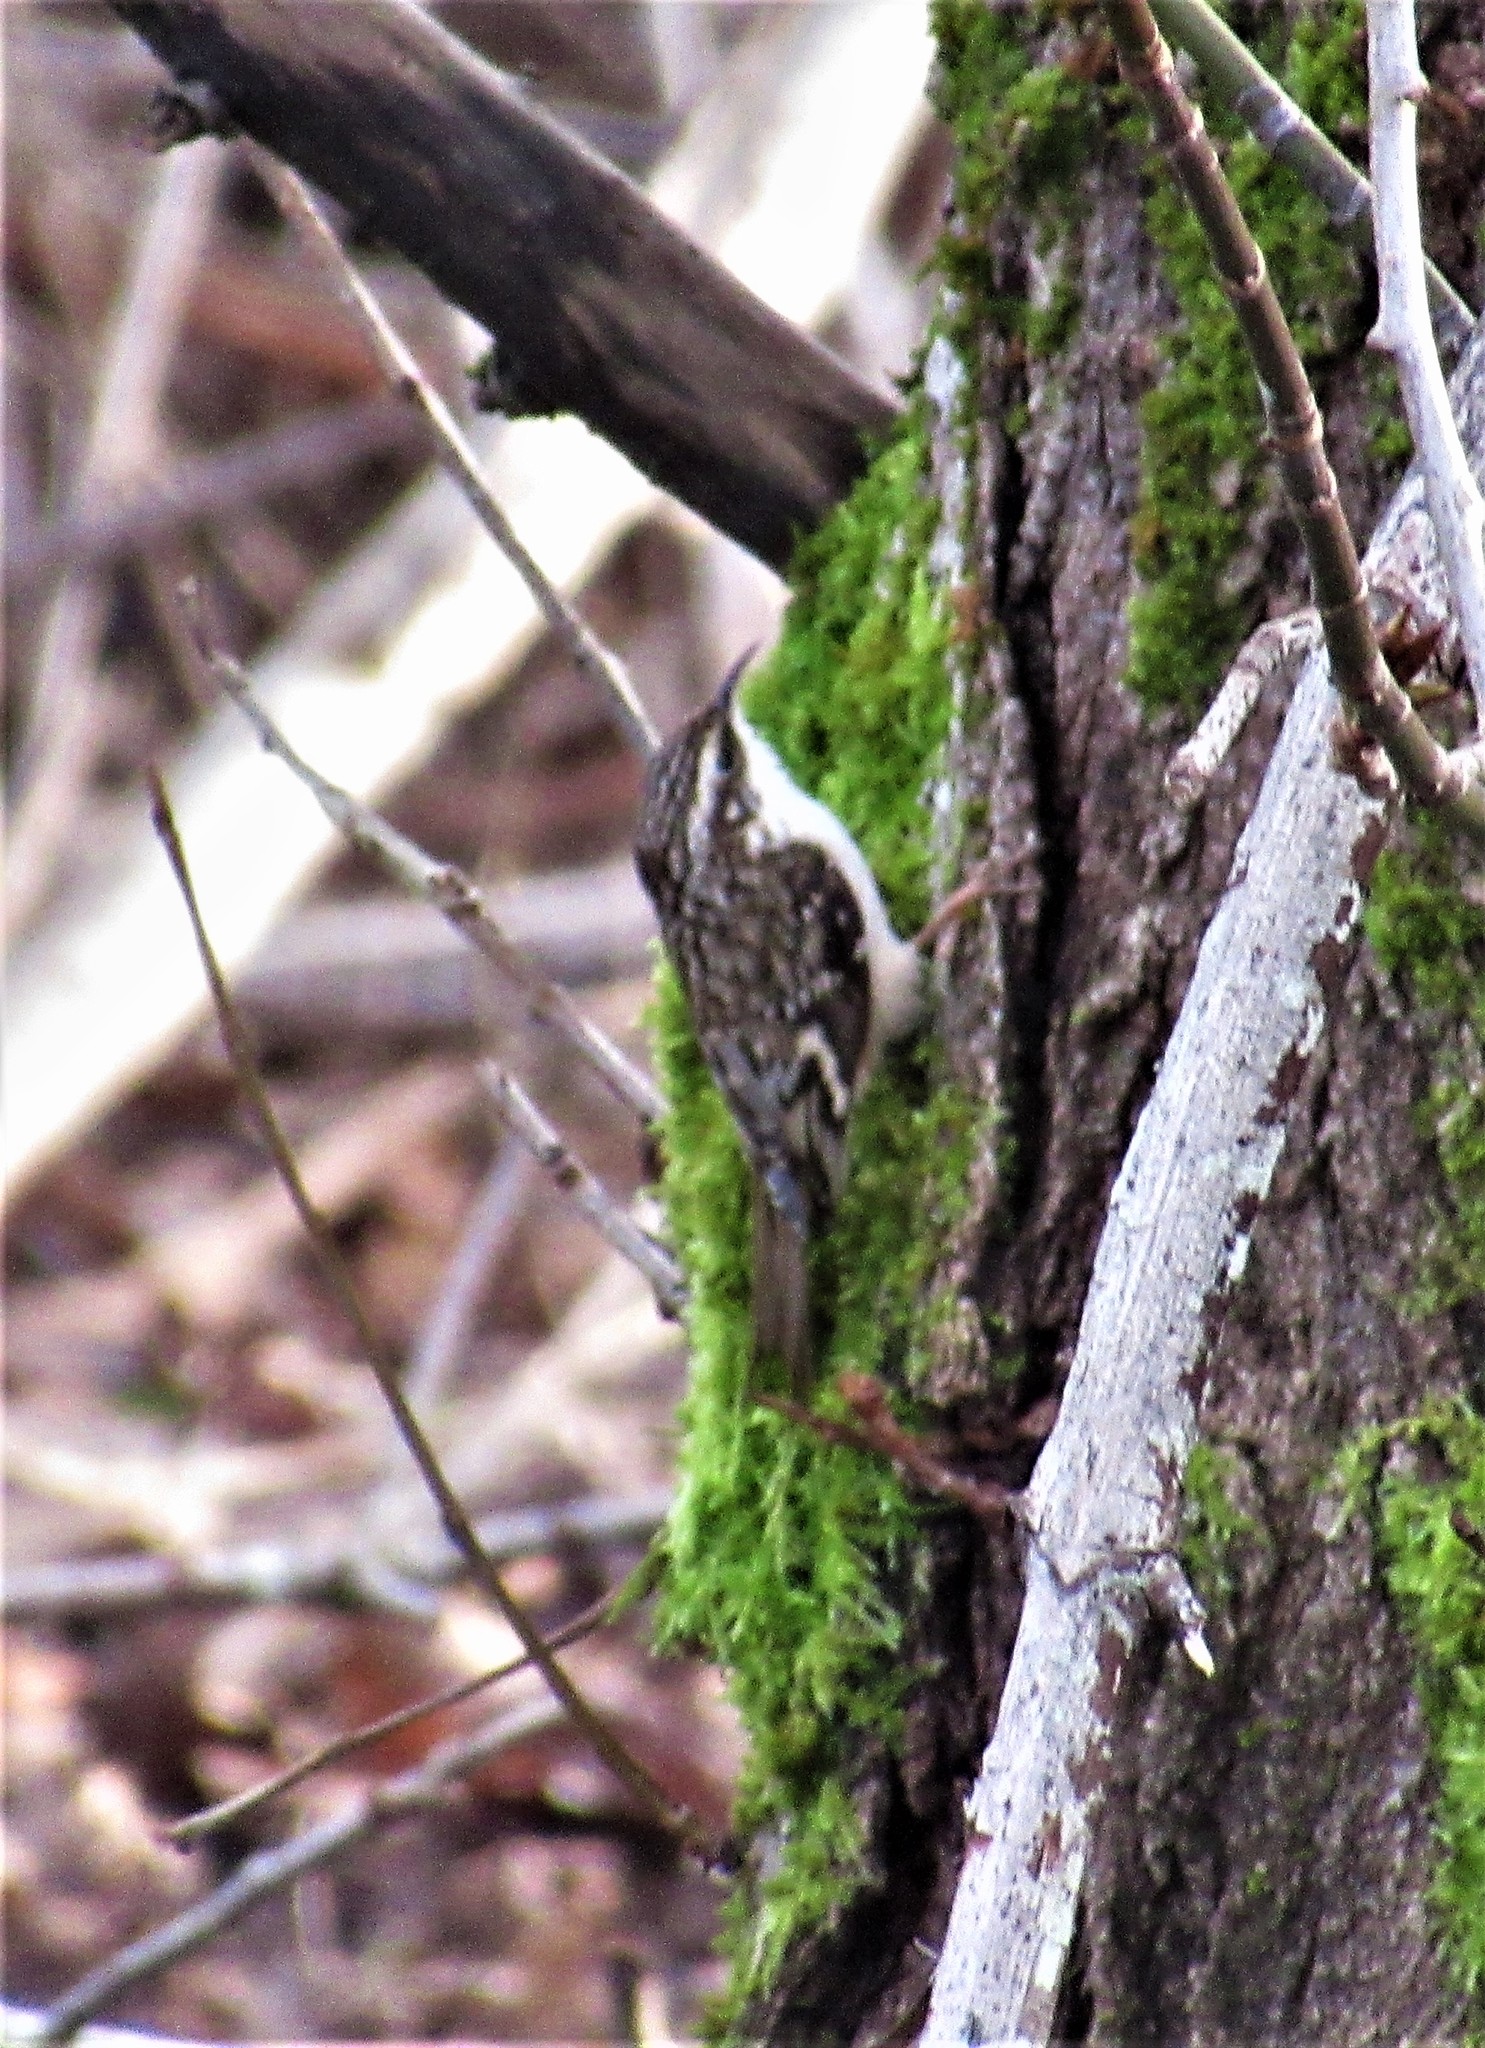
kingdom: Animalia
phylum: Chordata
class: Aves
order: Passeriformes
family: Certhiidae
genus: Certhia
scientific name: Certhia americana
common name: Brown creeper
